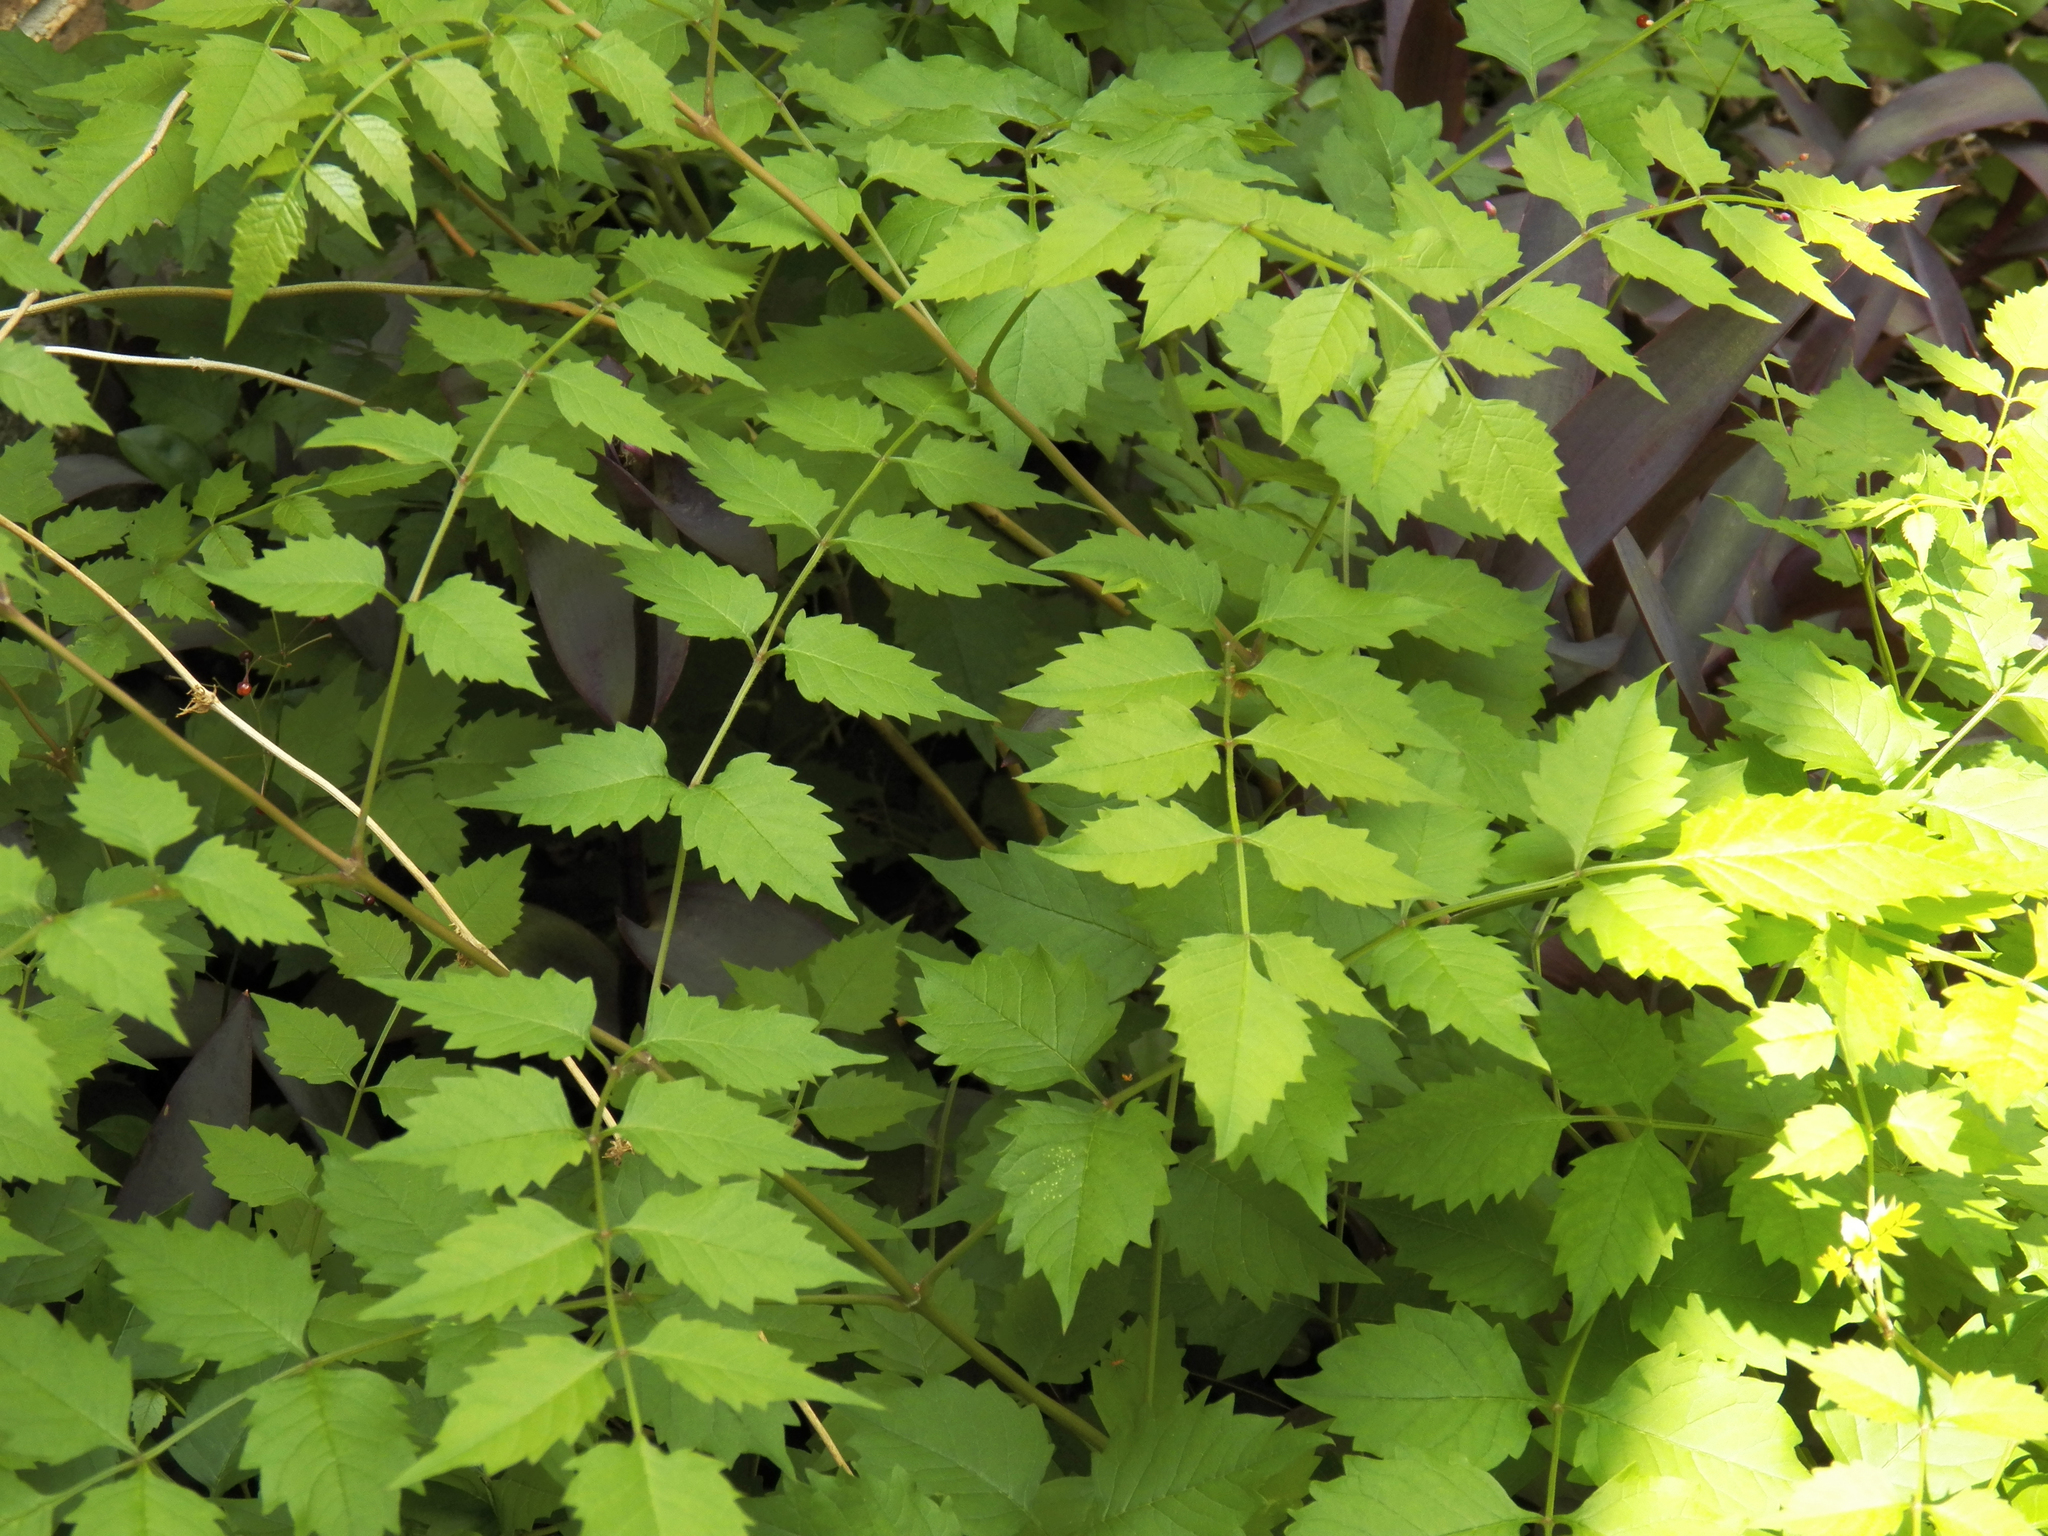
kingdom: Plantae
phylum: Tracheophyta
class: Magnoliopsida
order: Lamiales
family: Bignoniaceae
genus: Campsis
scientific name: Campsis radicans
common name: Trumpet-creeper
